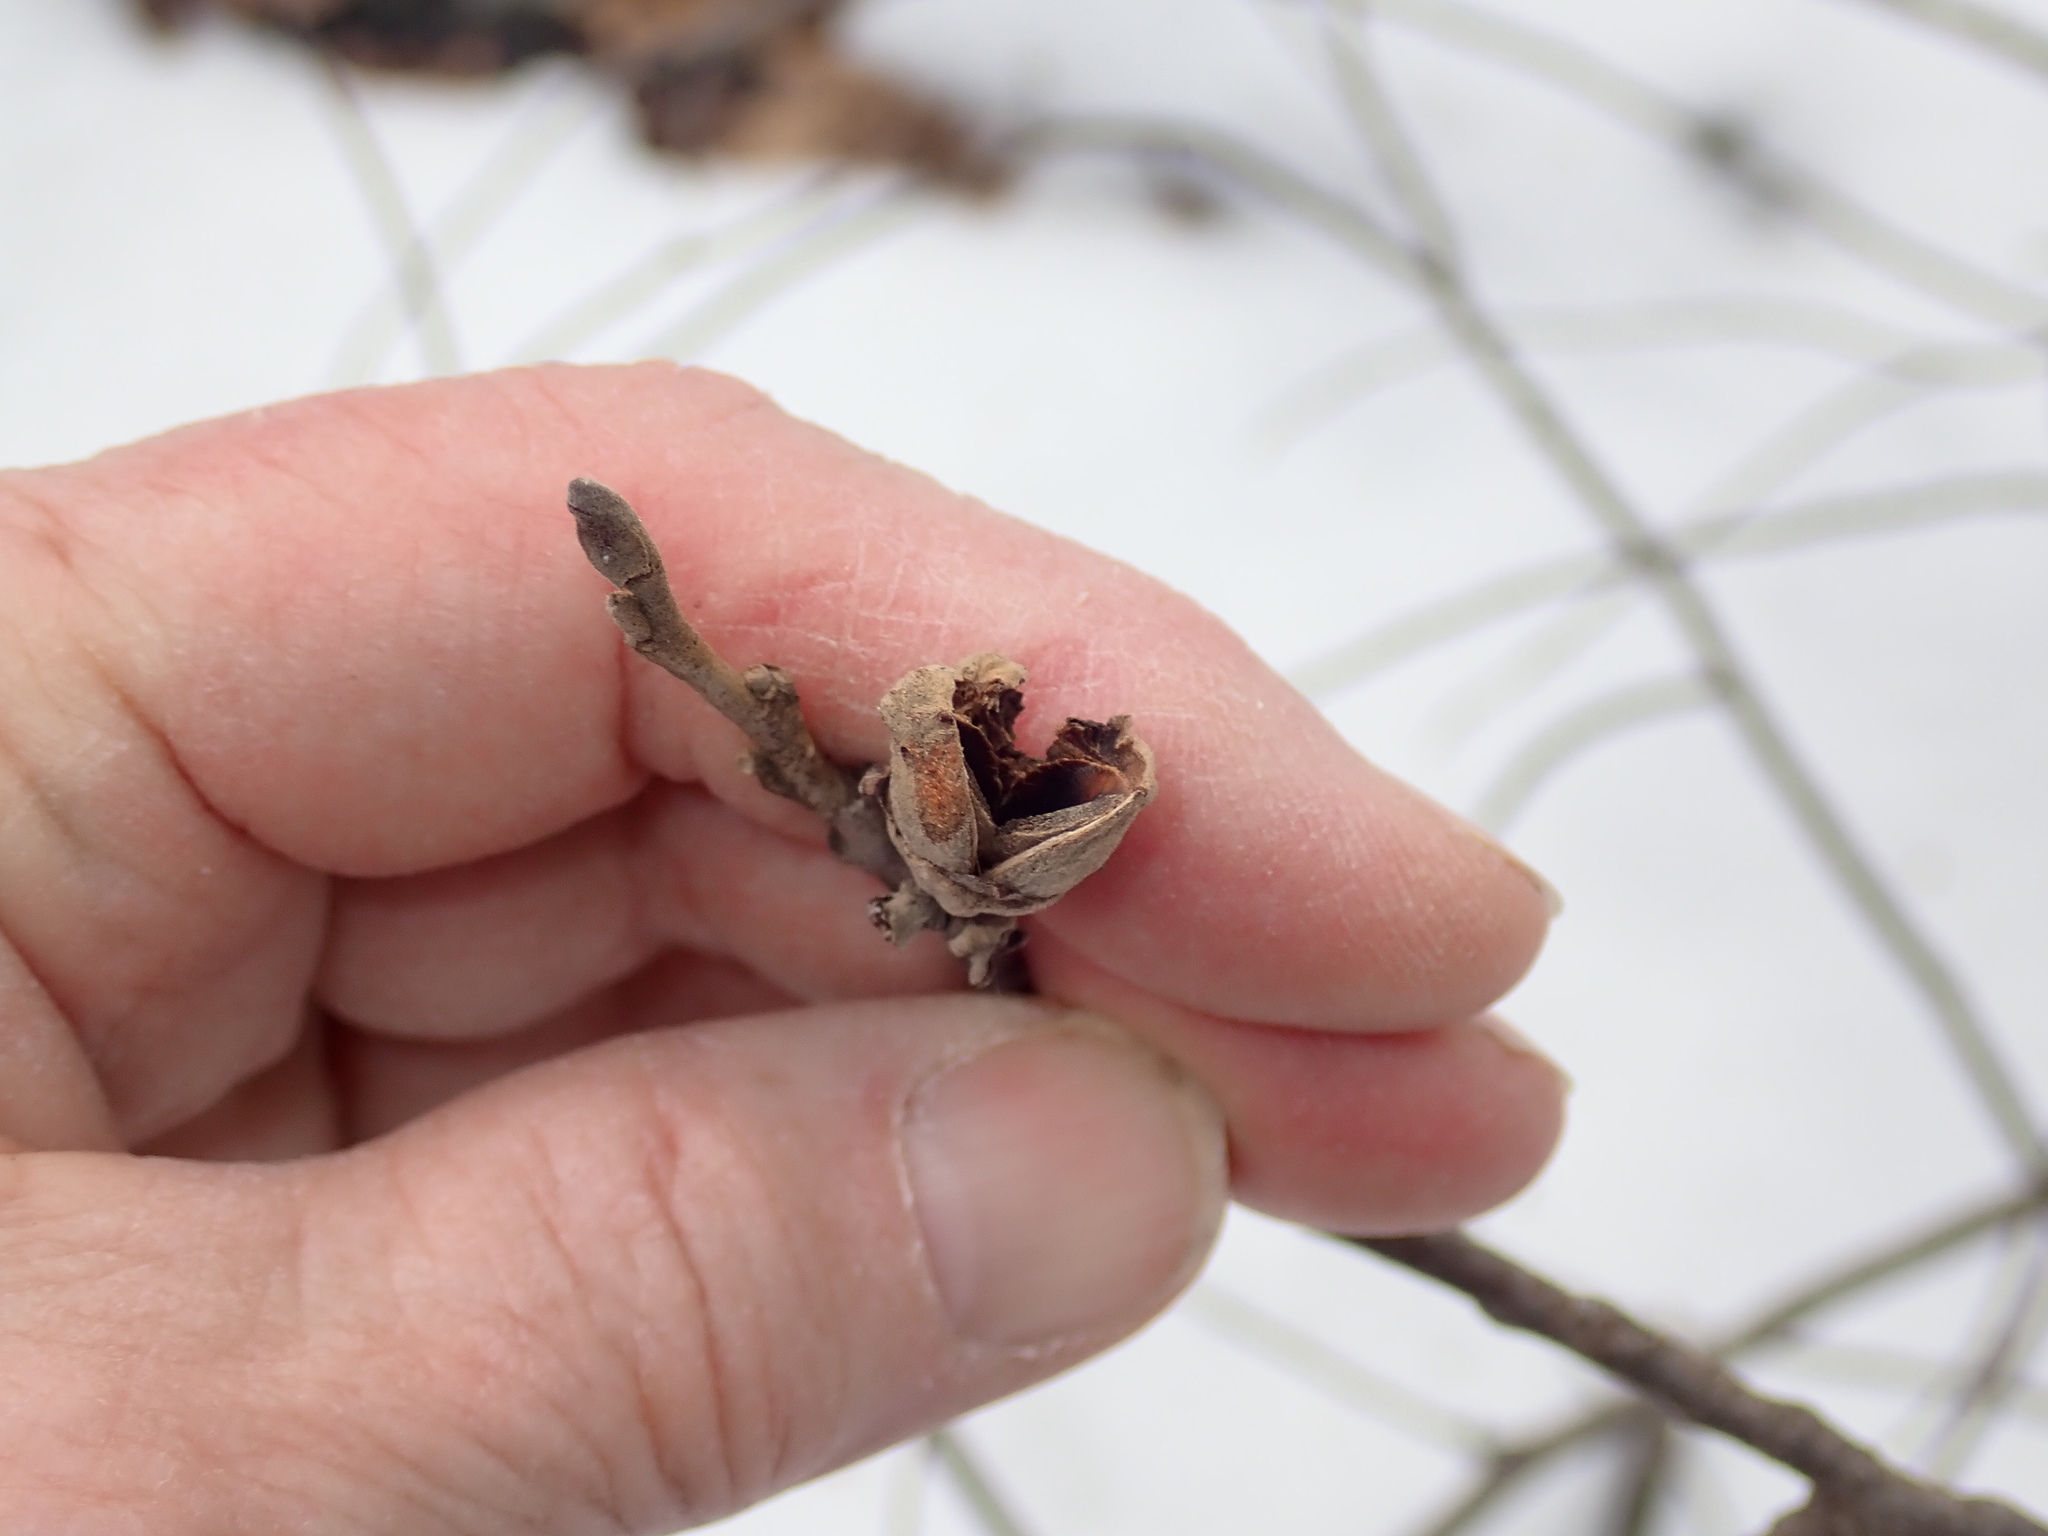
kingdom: Plantae
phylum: Tracheophyta
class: Magnoliopsida
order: Saxifragales
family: Hamamelidaceae
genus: Hamamelis
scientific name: Hamamelis virginiana
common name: Witch-hazel
